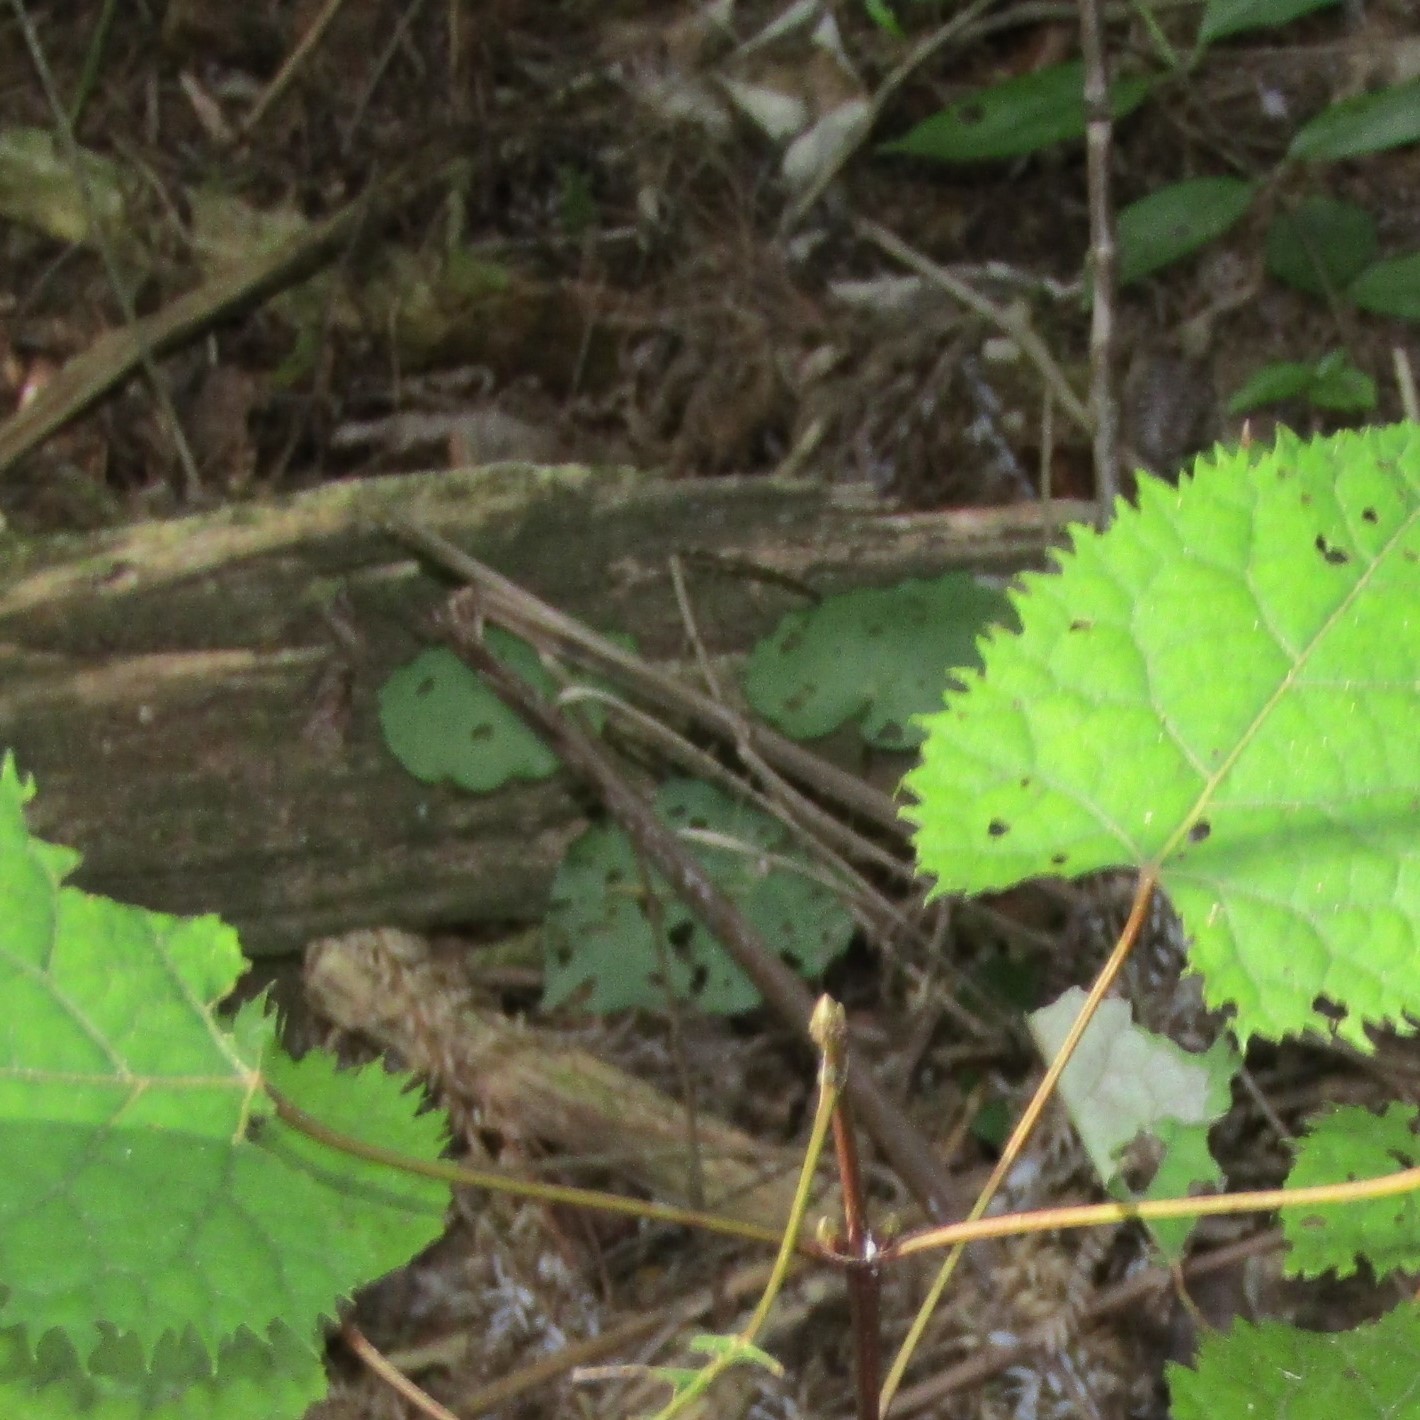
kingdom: Plantae
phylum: Tracheophyta
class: Magnoliopsida
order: Piperales
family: Piperaceae
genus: Macropiper
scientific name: Macropiper excelsum
